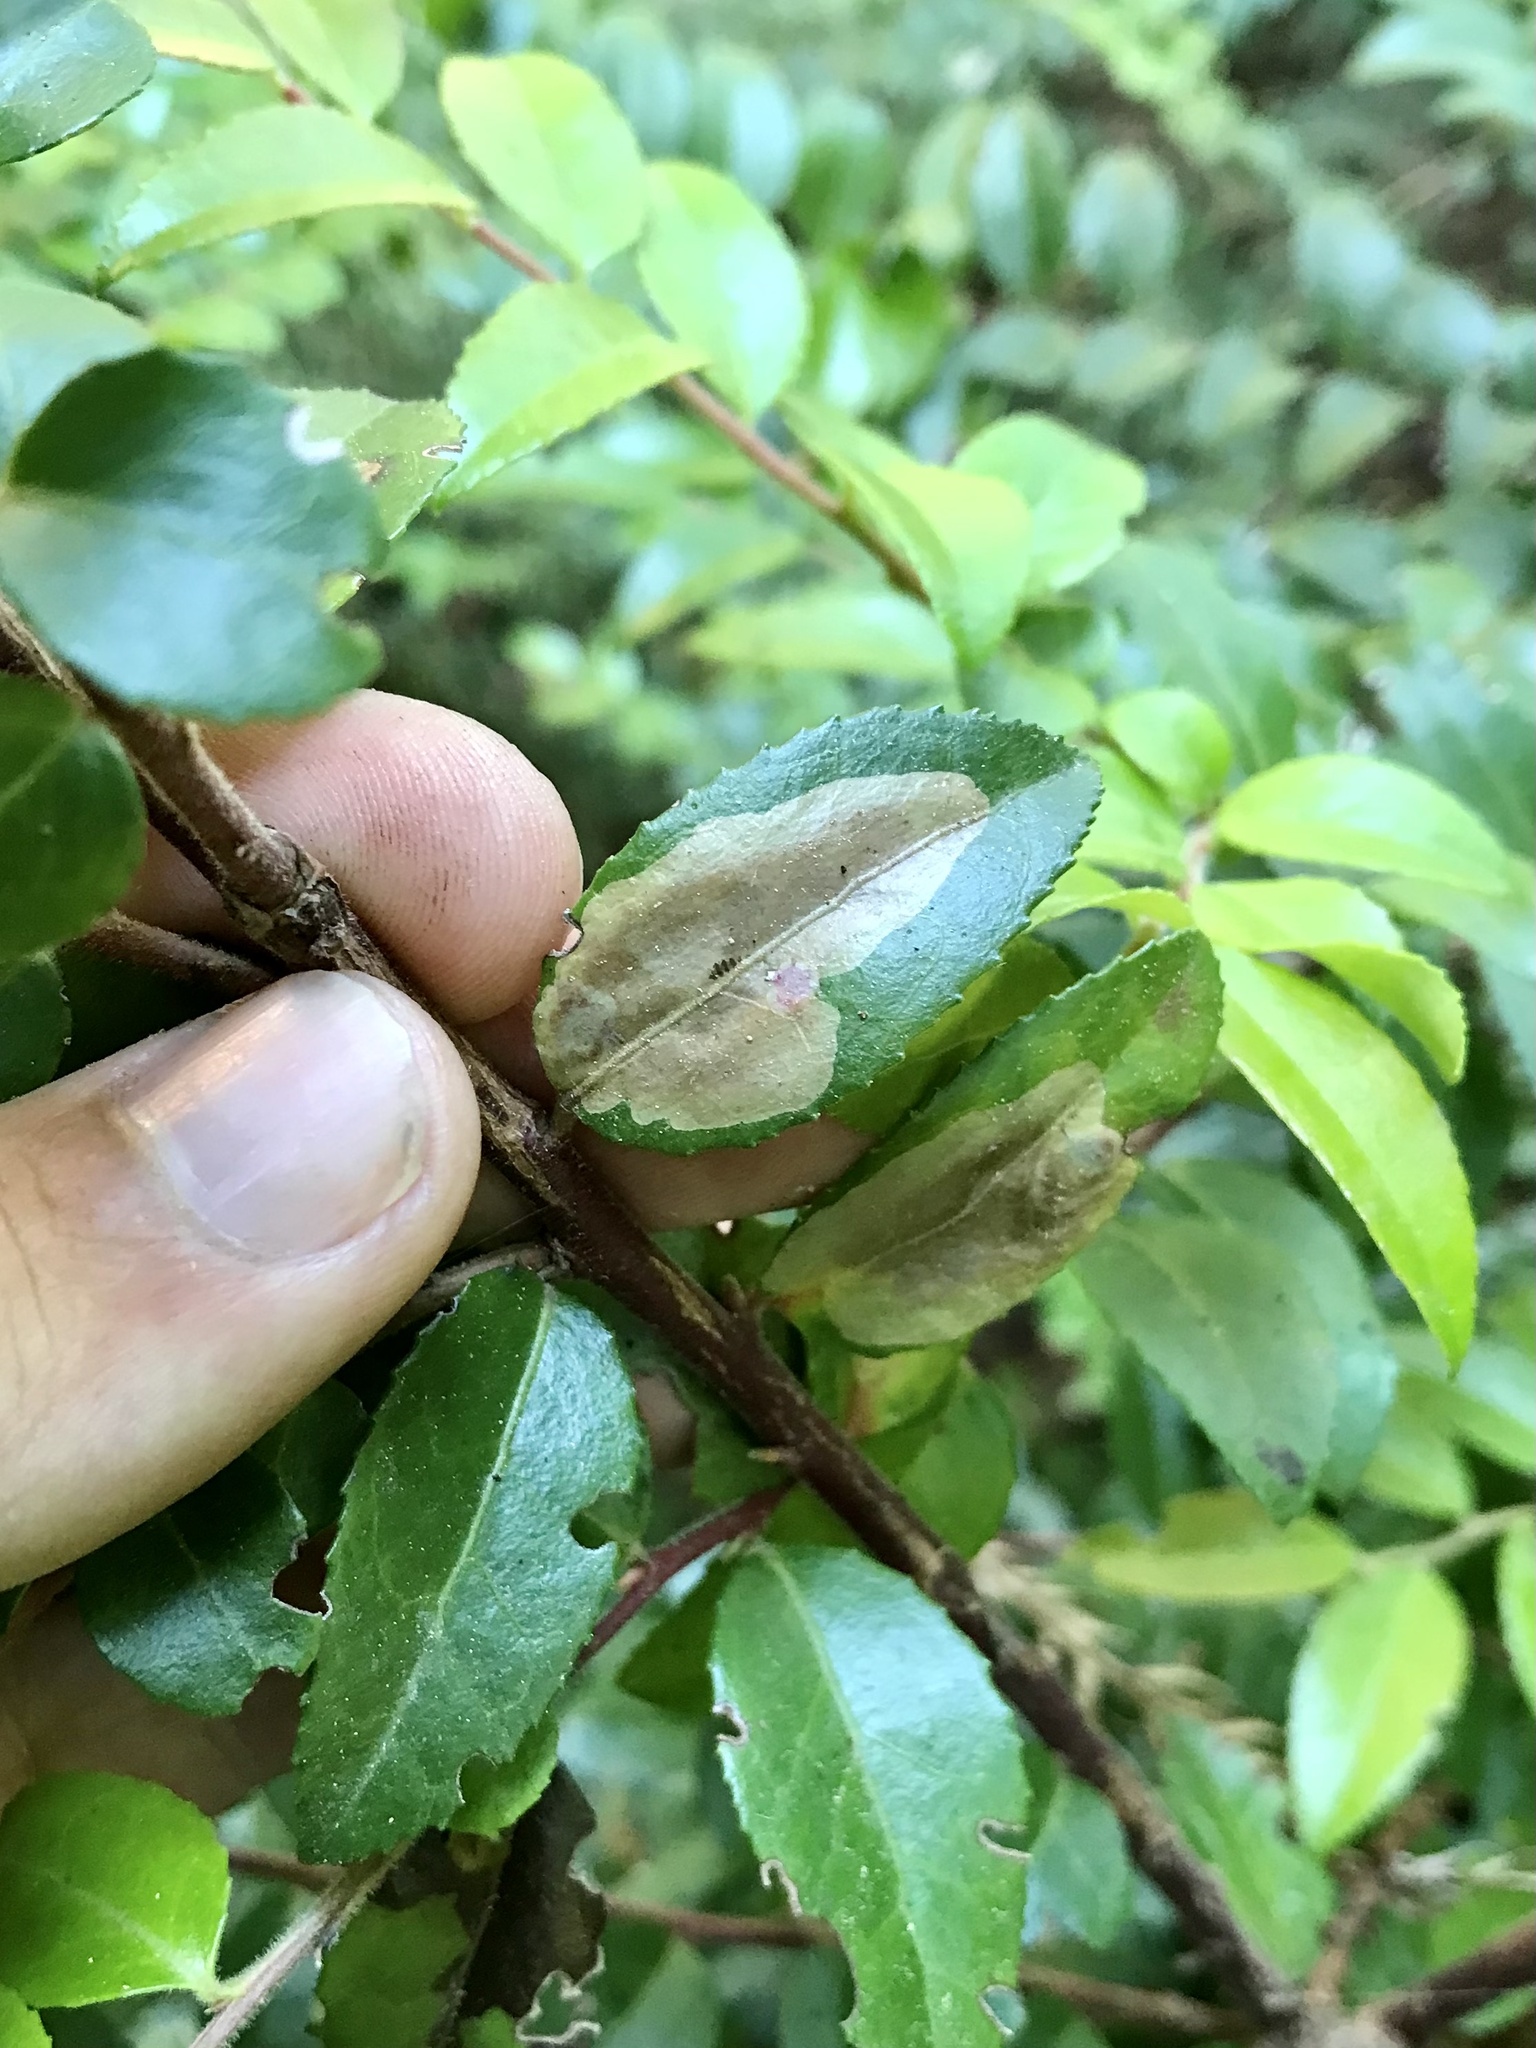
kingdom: Animalia
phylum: Arthropoda
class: Insecta
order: Lepidoptera
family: Gracillariidae
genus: Cameraria
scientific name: Cameraria nemoris
